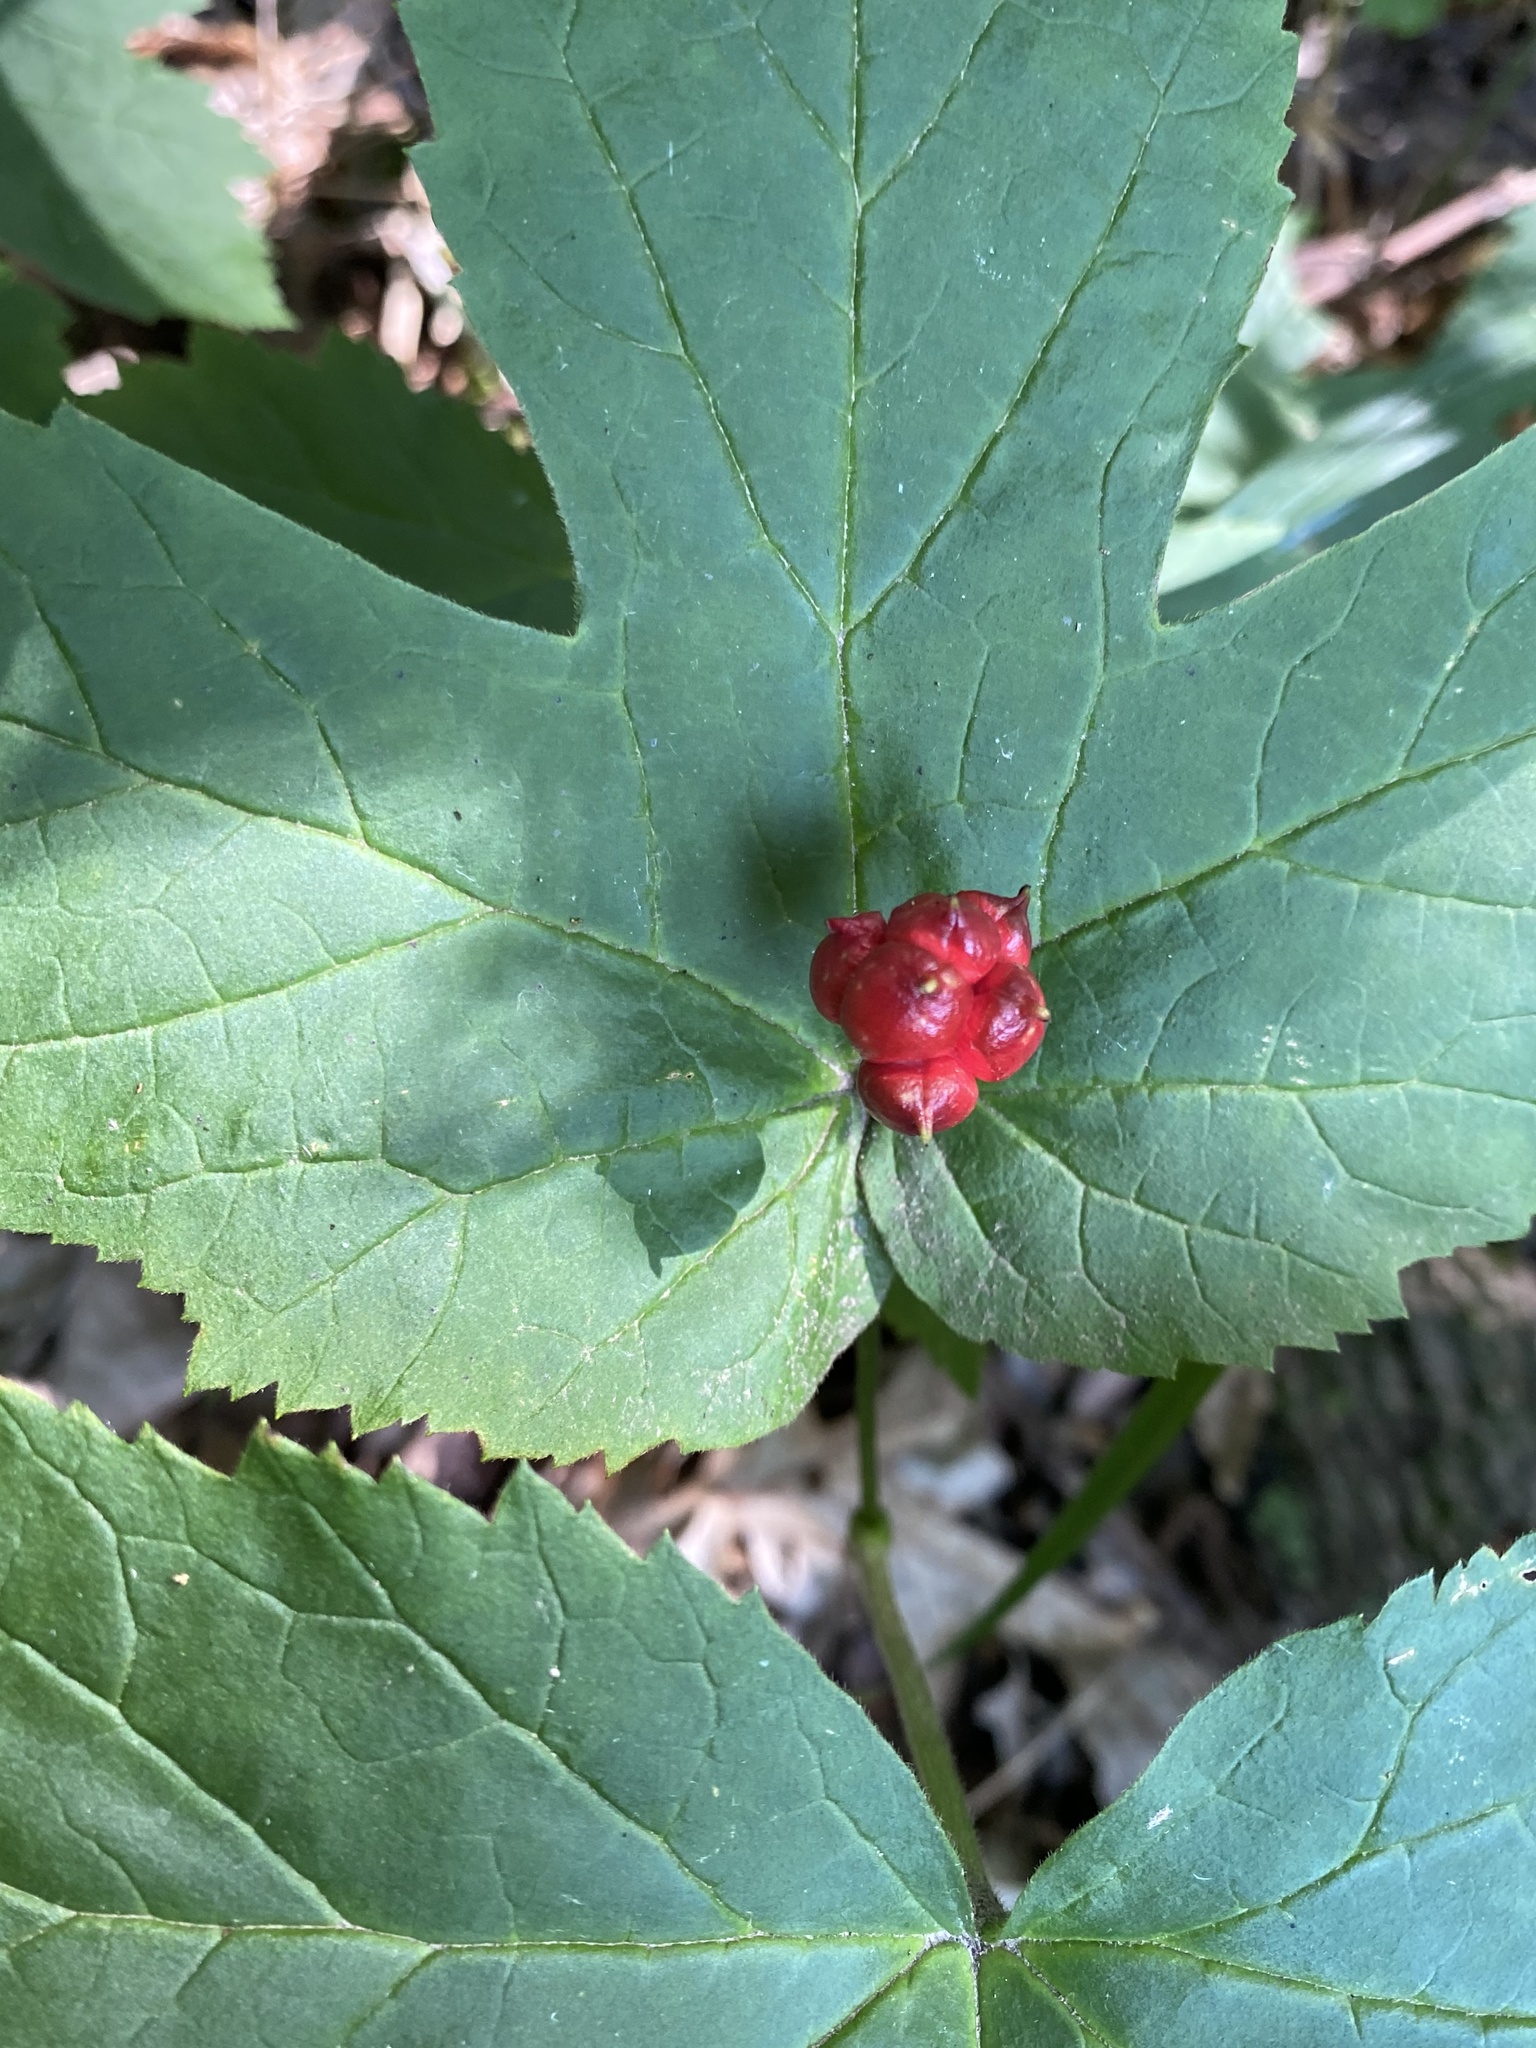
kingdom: Plantae
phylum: Tracheophyta
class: Magnoliopsida
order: Ranunculales
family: Ranunculaceae
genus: Hydrastis
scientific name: Hydrastis canadensis
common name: Goldenseal
